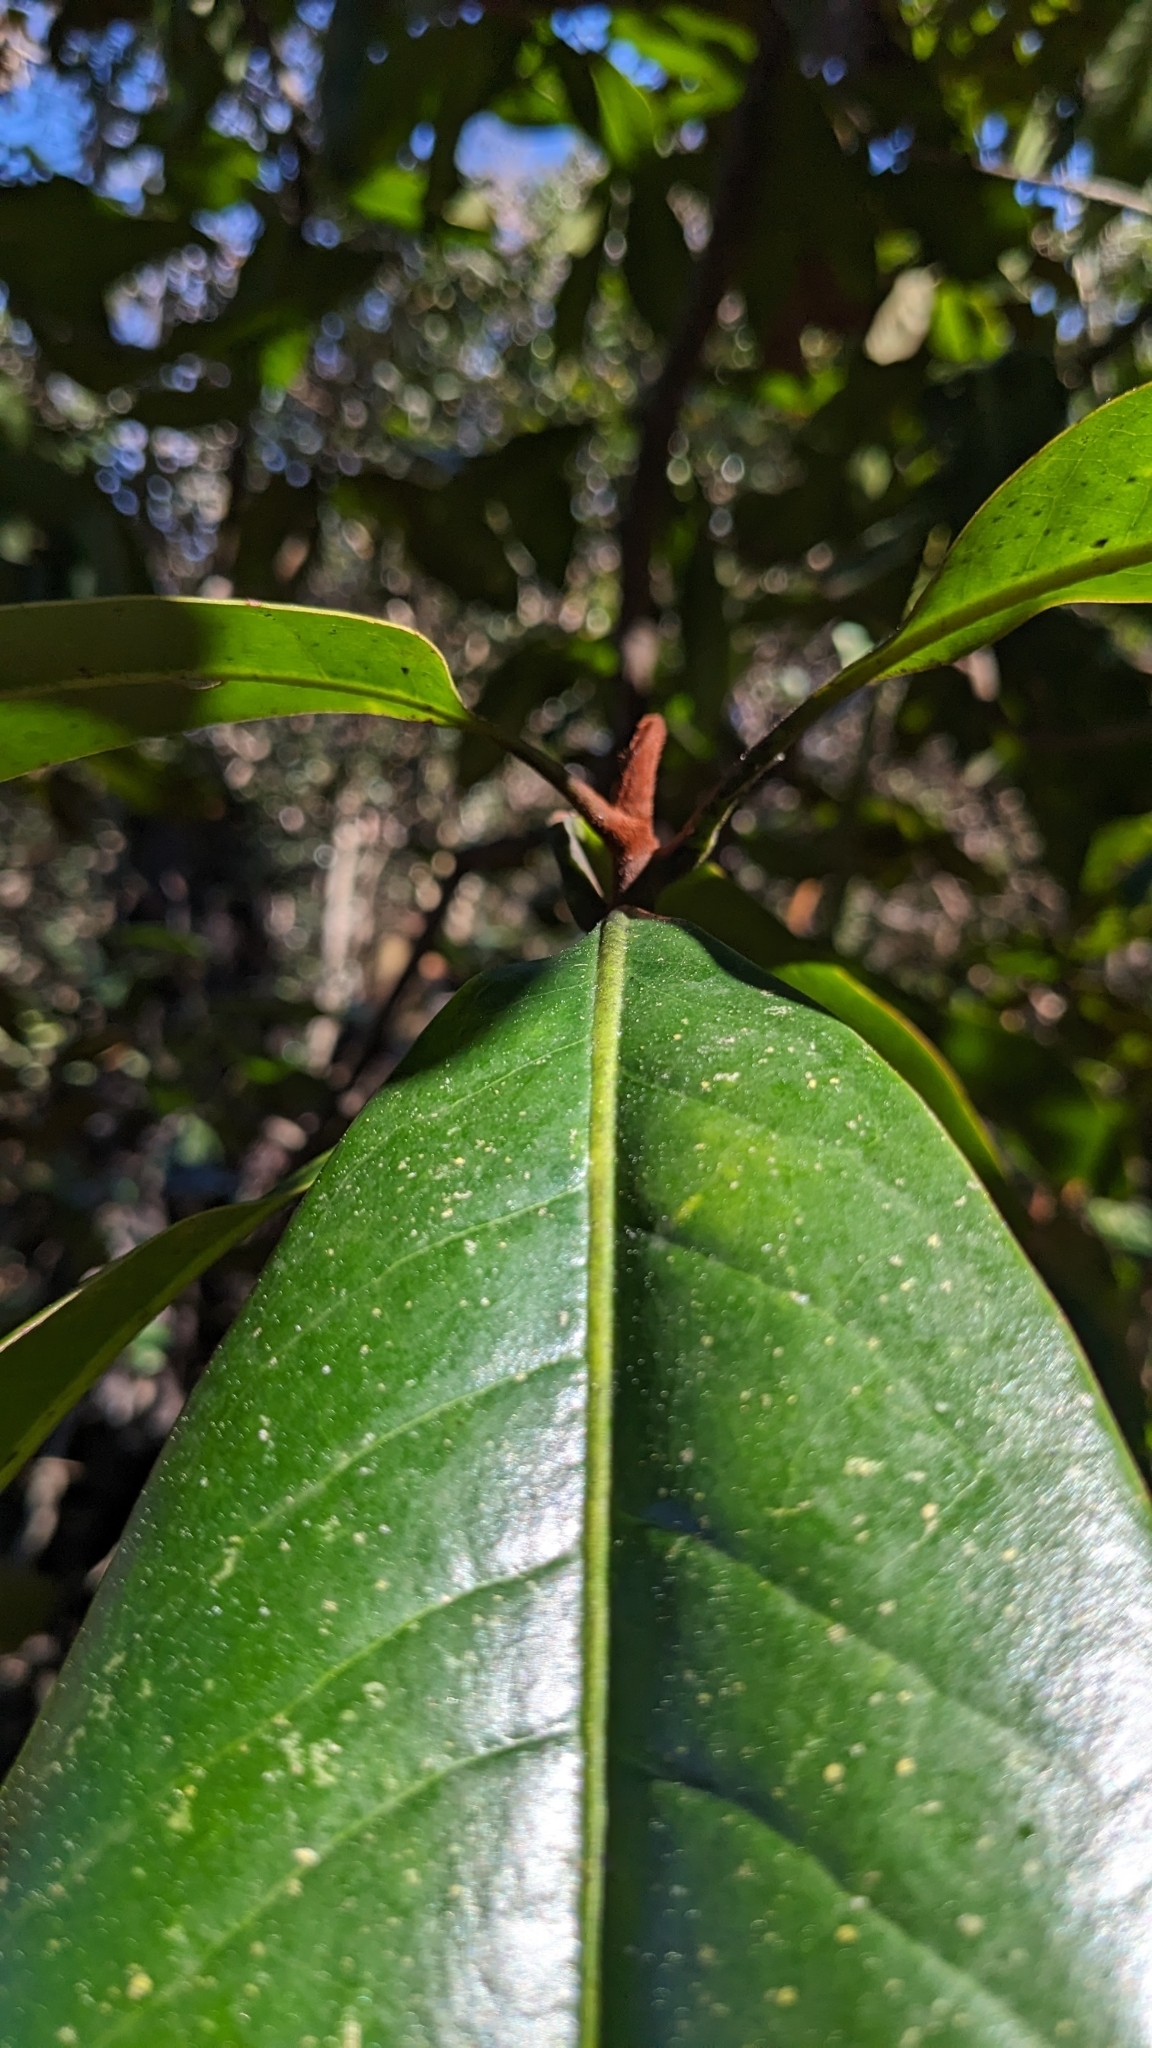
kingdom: Plantae
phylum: Tracheophyta
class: Magnoliopsida
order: Magnoliales
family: Magnoliaceae
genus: Magnolia
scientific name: Magnolia grandiflora
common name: Southern magnolia
